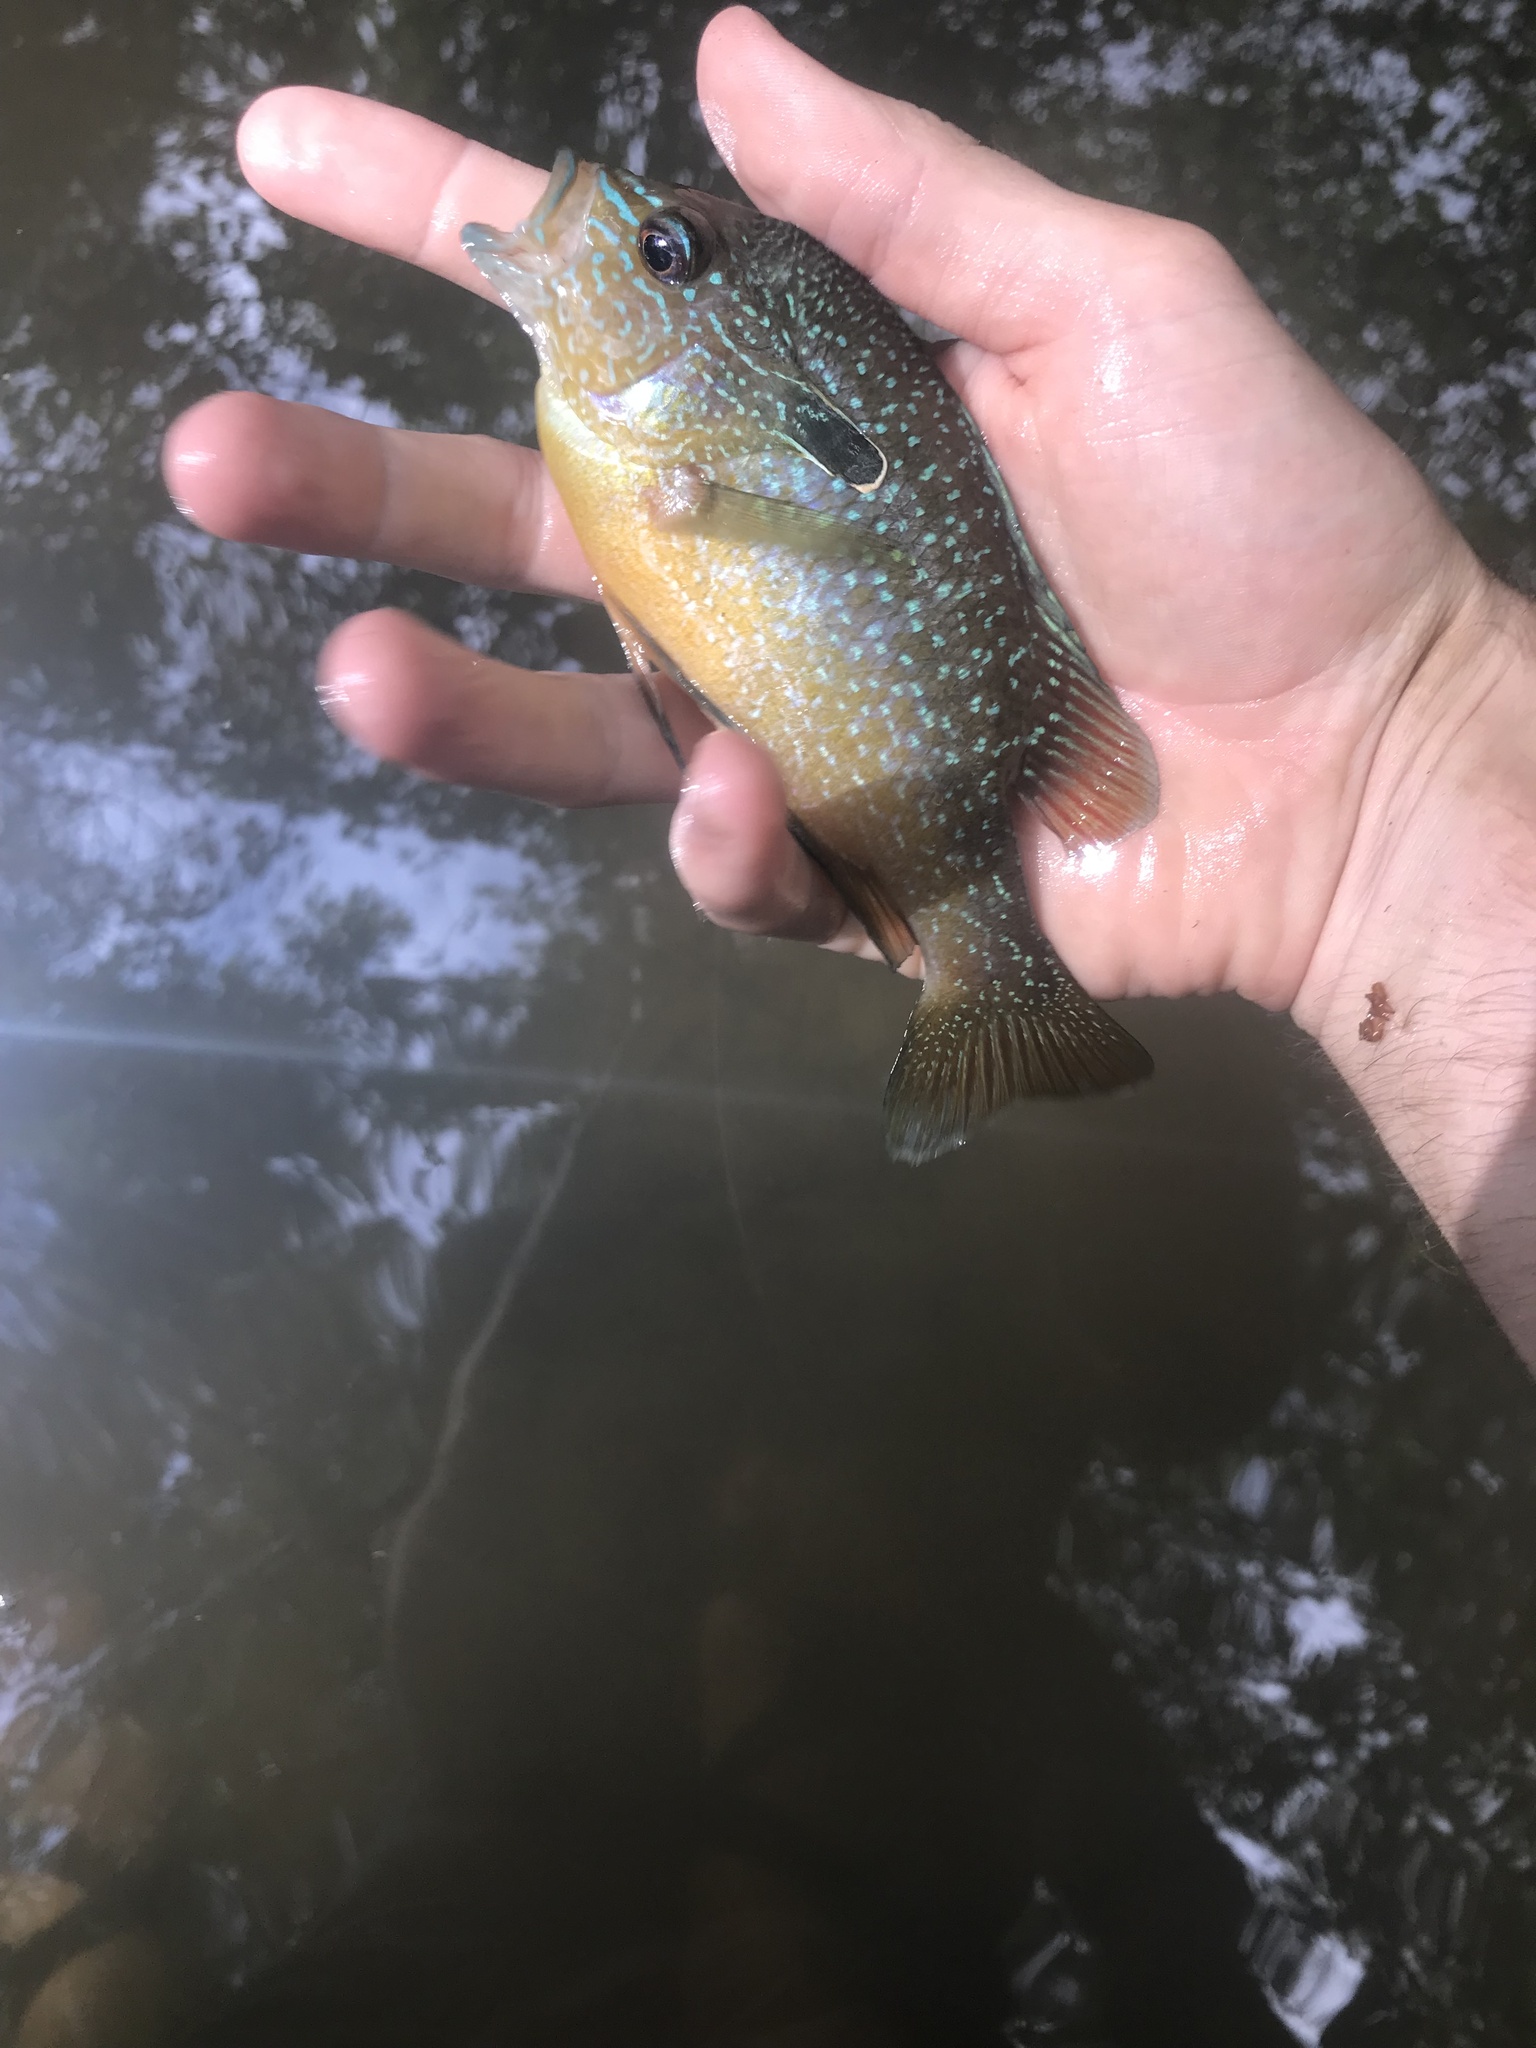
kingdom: Animalia
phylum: Chordata
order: Perciformes
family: Centrarchidae
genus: Lepomis
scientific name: Lepomis megalotis
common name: Longear sunfish
